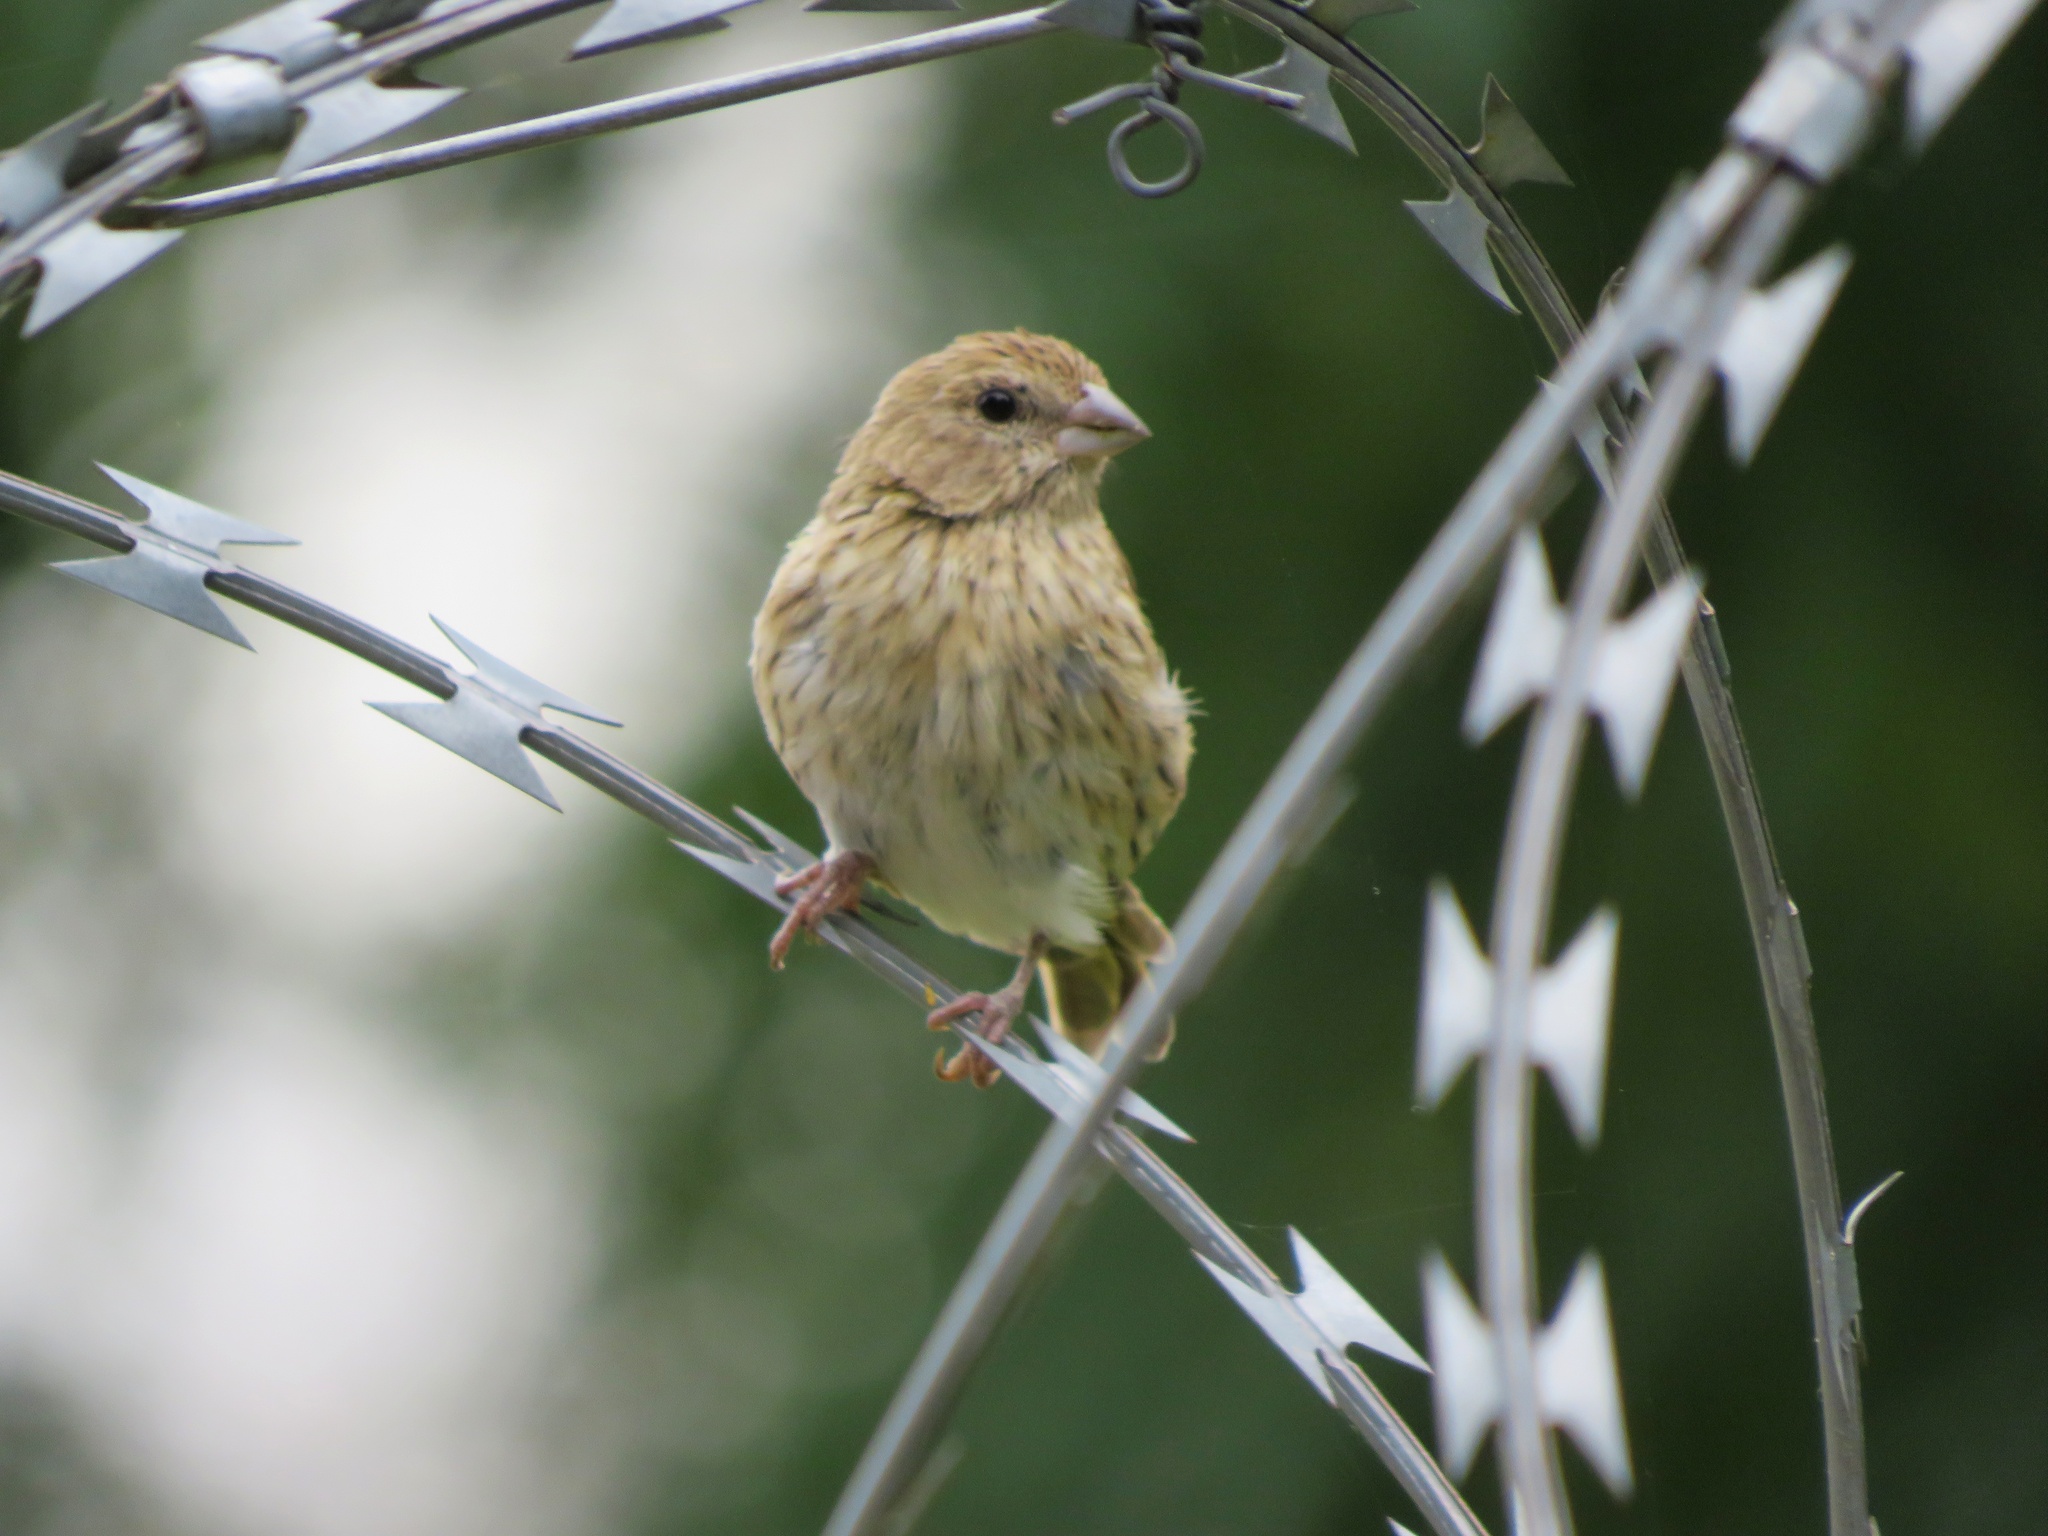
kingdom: Animalia
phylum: Chordata
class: Aves
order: Passeriformes
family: Thraupidae
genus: Sicalis
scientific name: Sicalis flaveola
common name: Saffron finch
